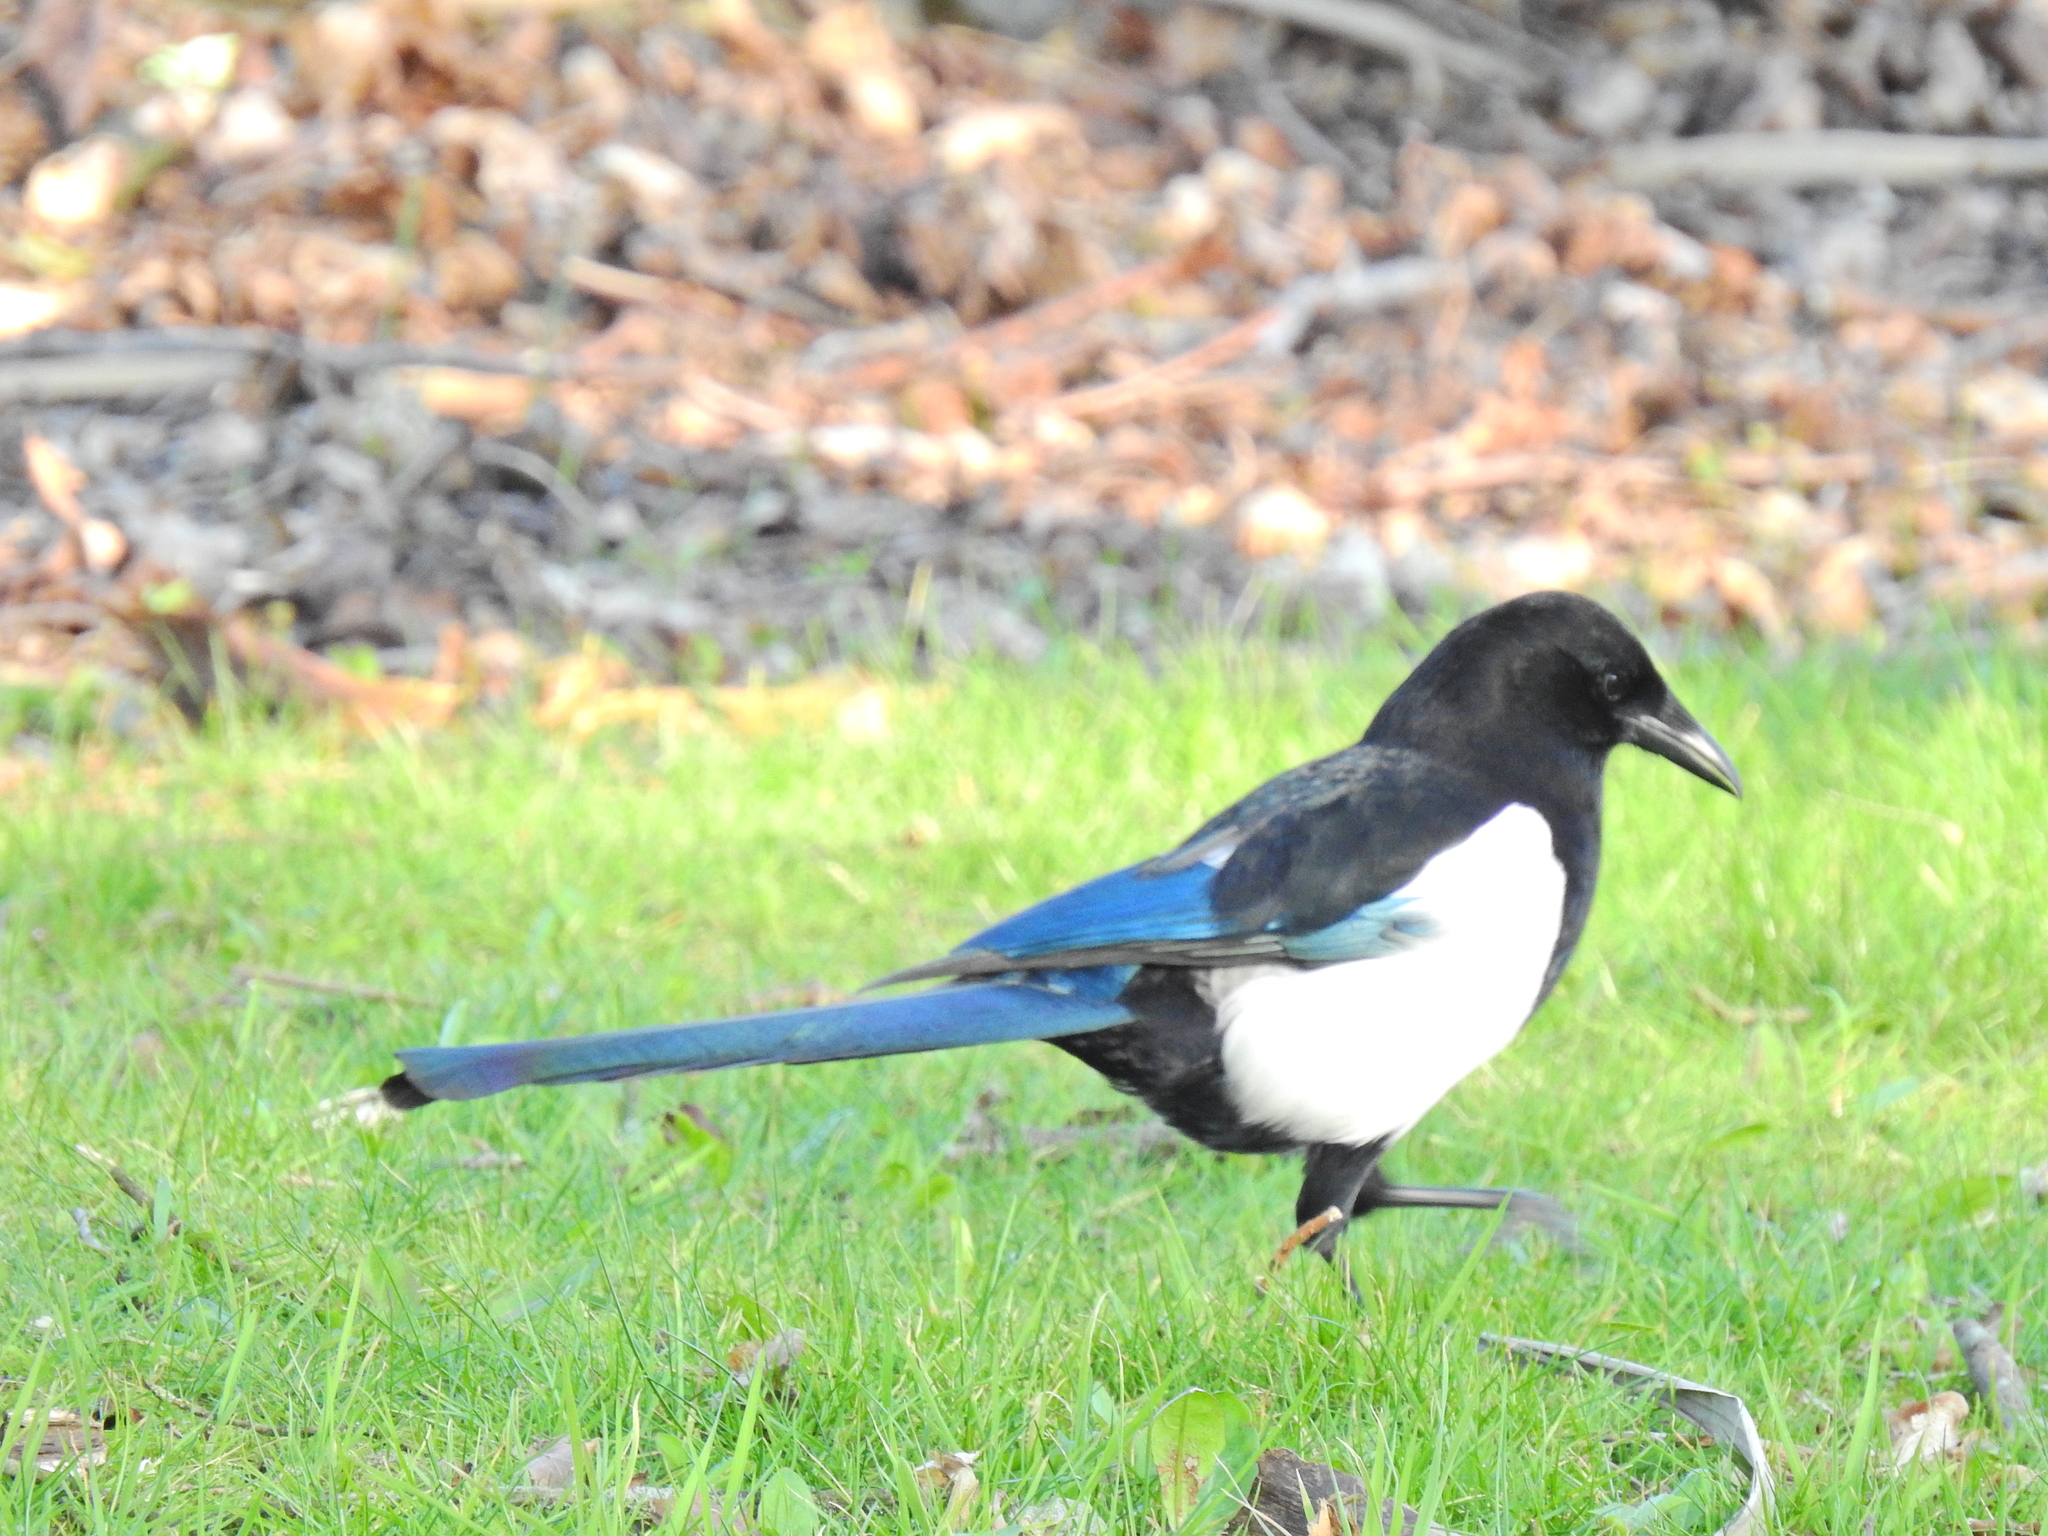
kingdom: Animalia
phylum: Chordata
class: Aves
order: Passeriformes
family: Corvidae
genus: Pica
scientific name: Pica pica
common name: Eurasian magpie
